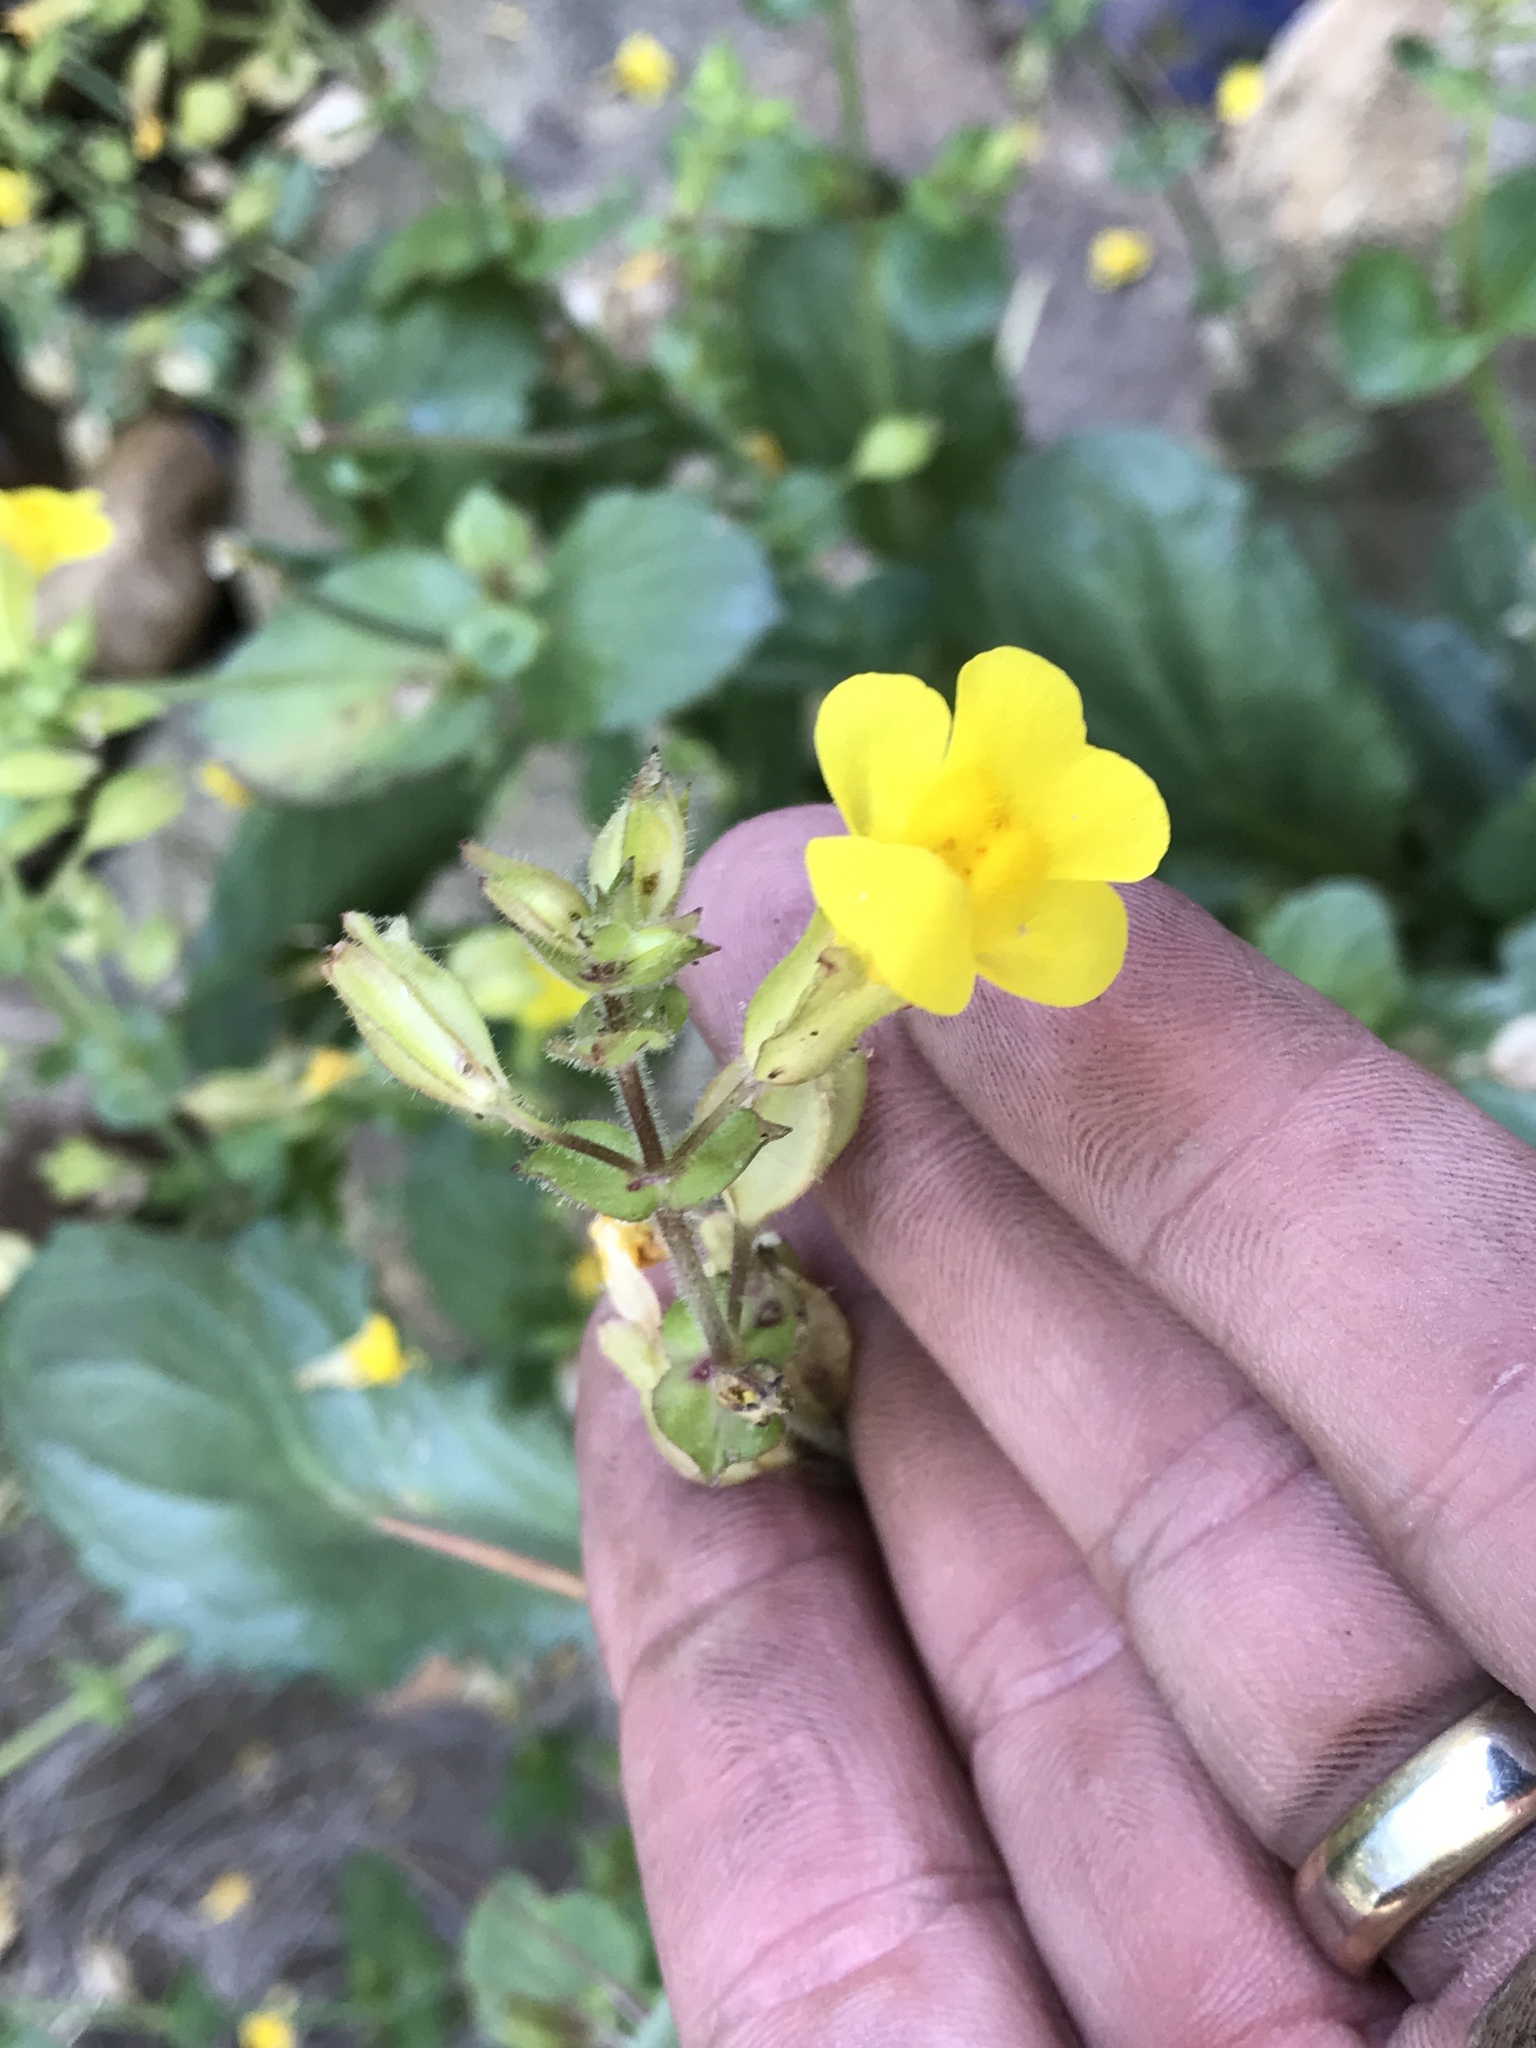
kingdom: Plantae
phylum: Tracheophyta
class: Magnoliopsida
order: Lamiales
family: Phrymaceae
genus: Erythranthe
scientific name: Erythranthe guttata
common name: Monkeyflower
